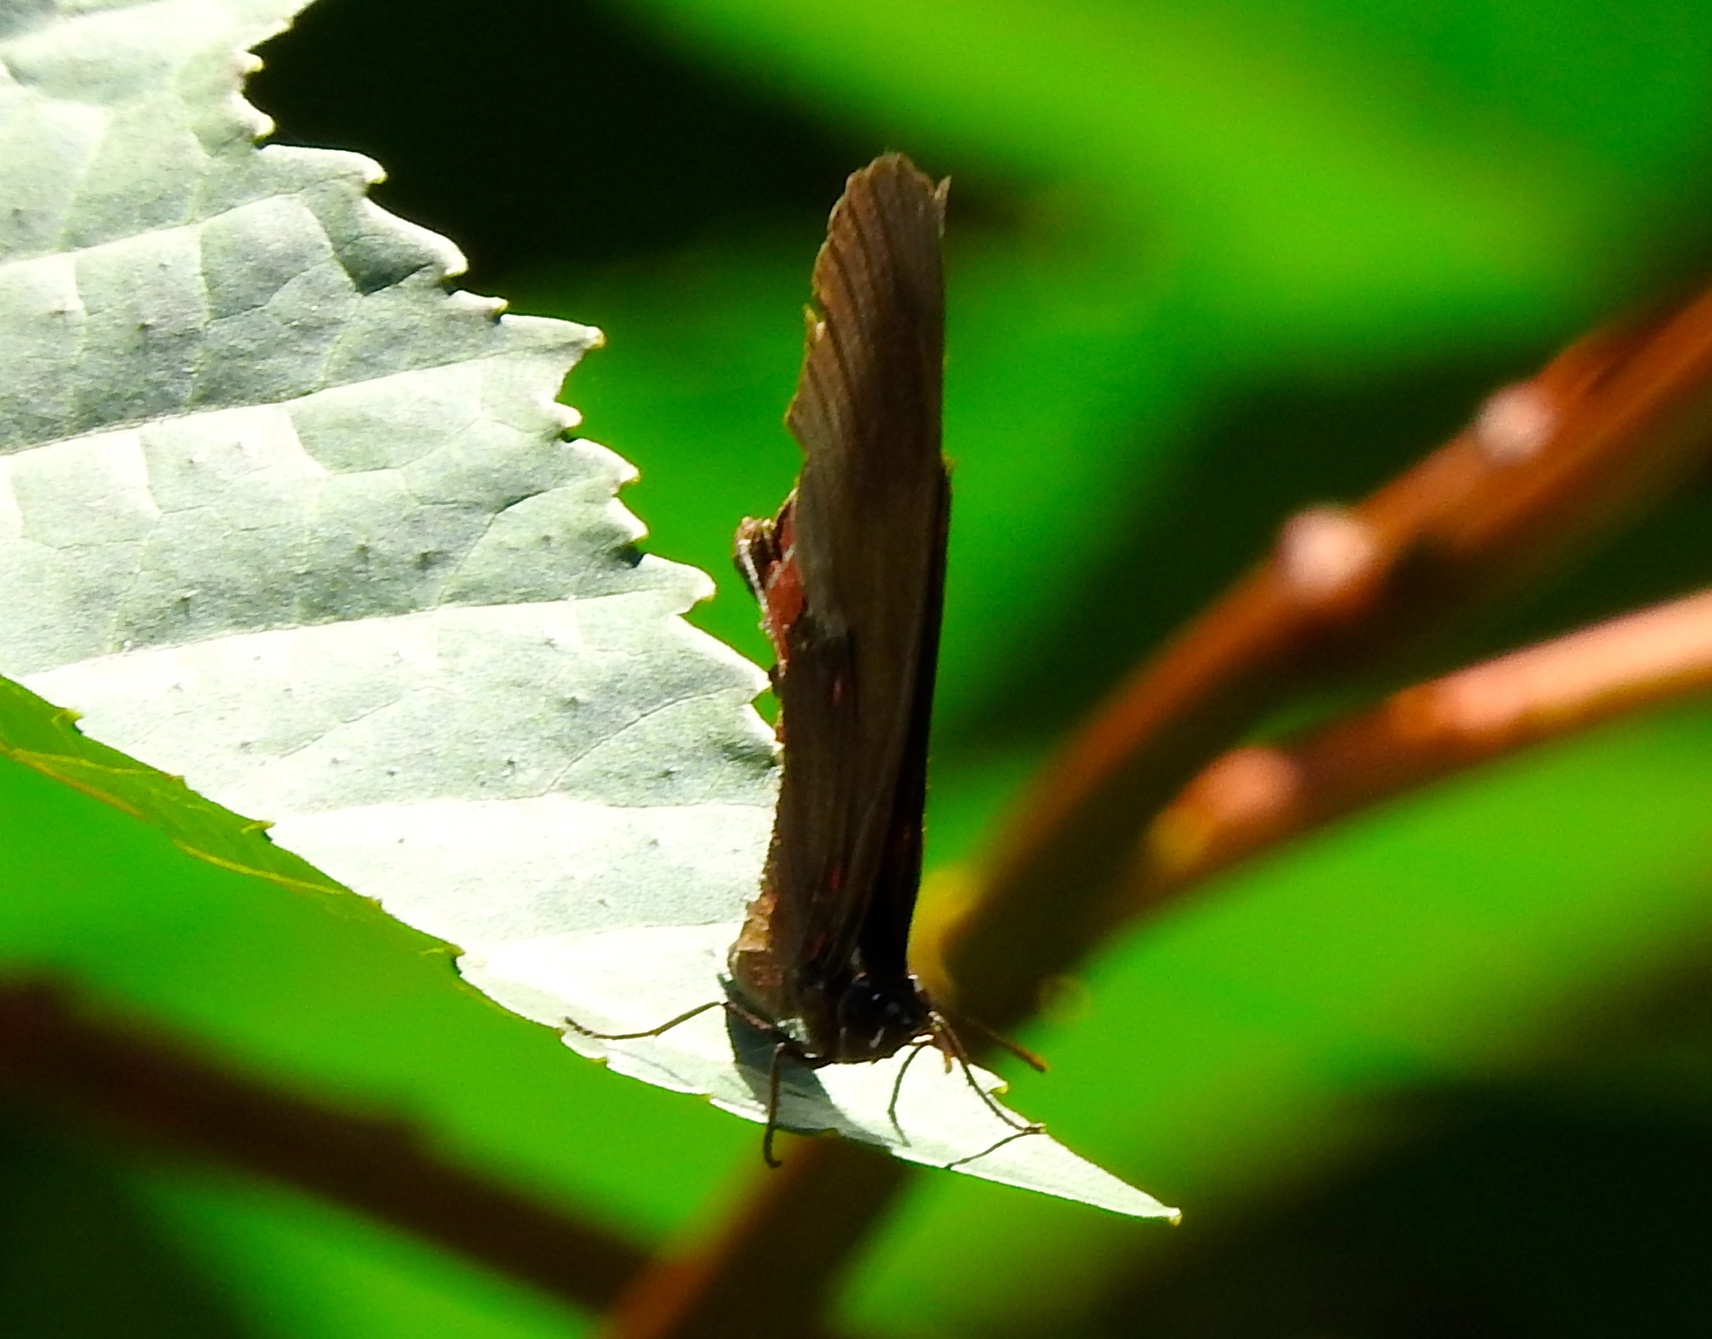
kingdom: Animalia
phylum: Arthropoda
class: Insecta
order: Lepidoptera
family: Nymphalidae
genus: Biblis
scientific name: Biblis aganisa
